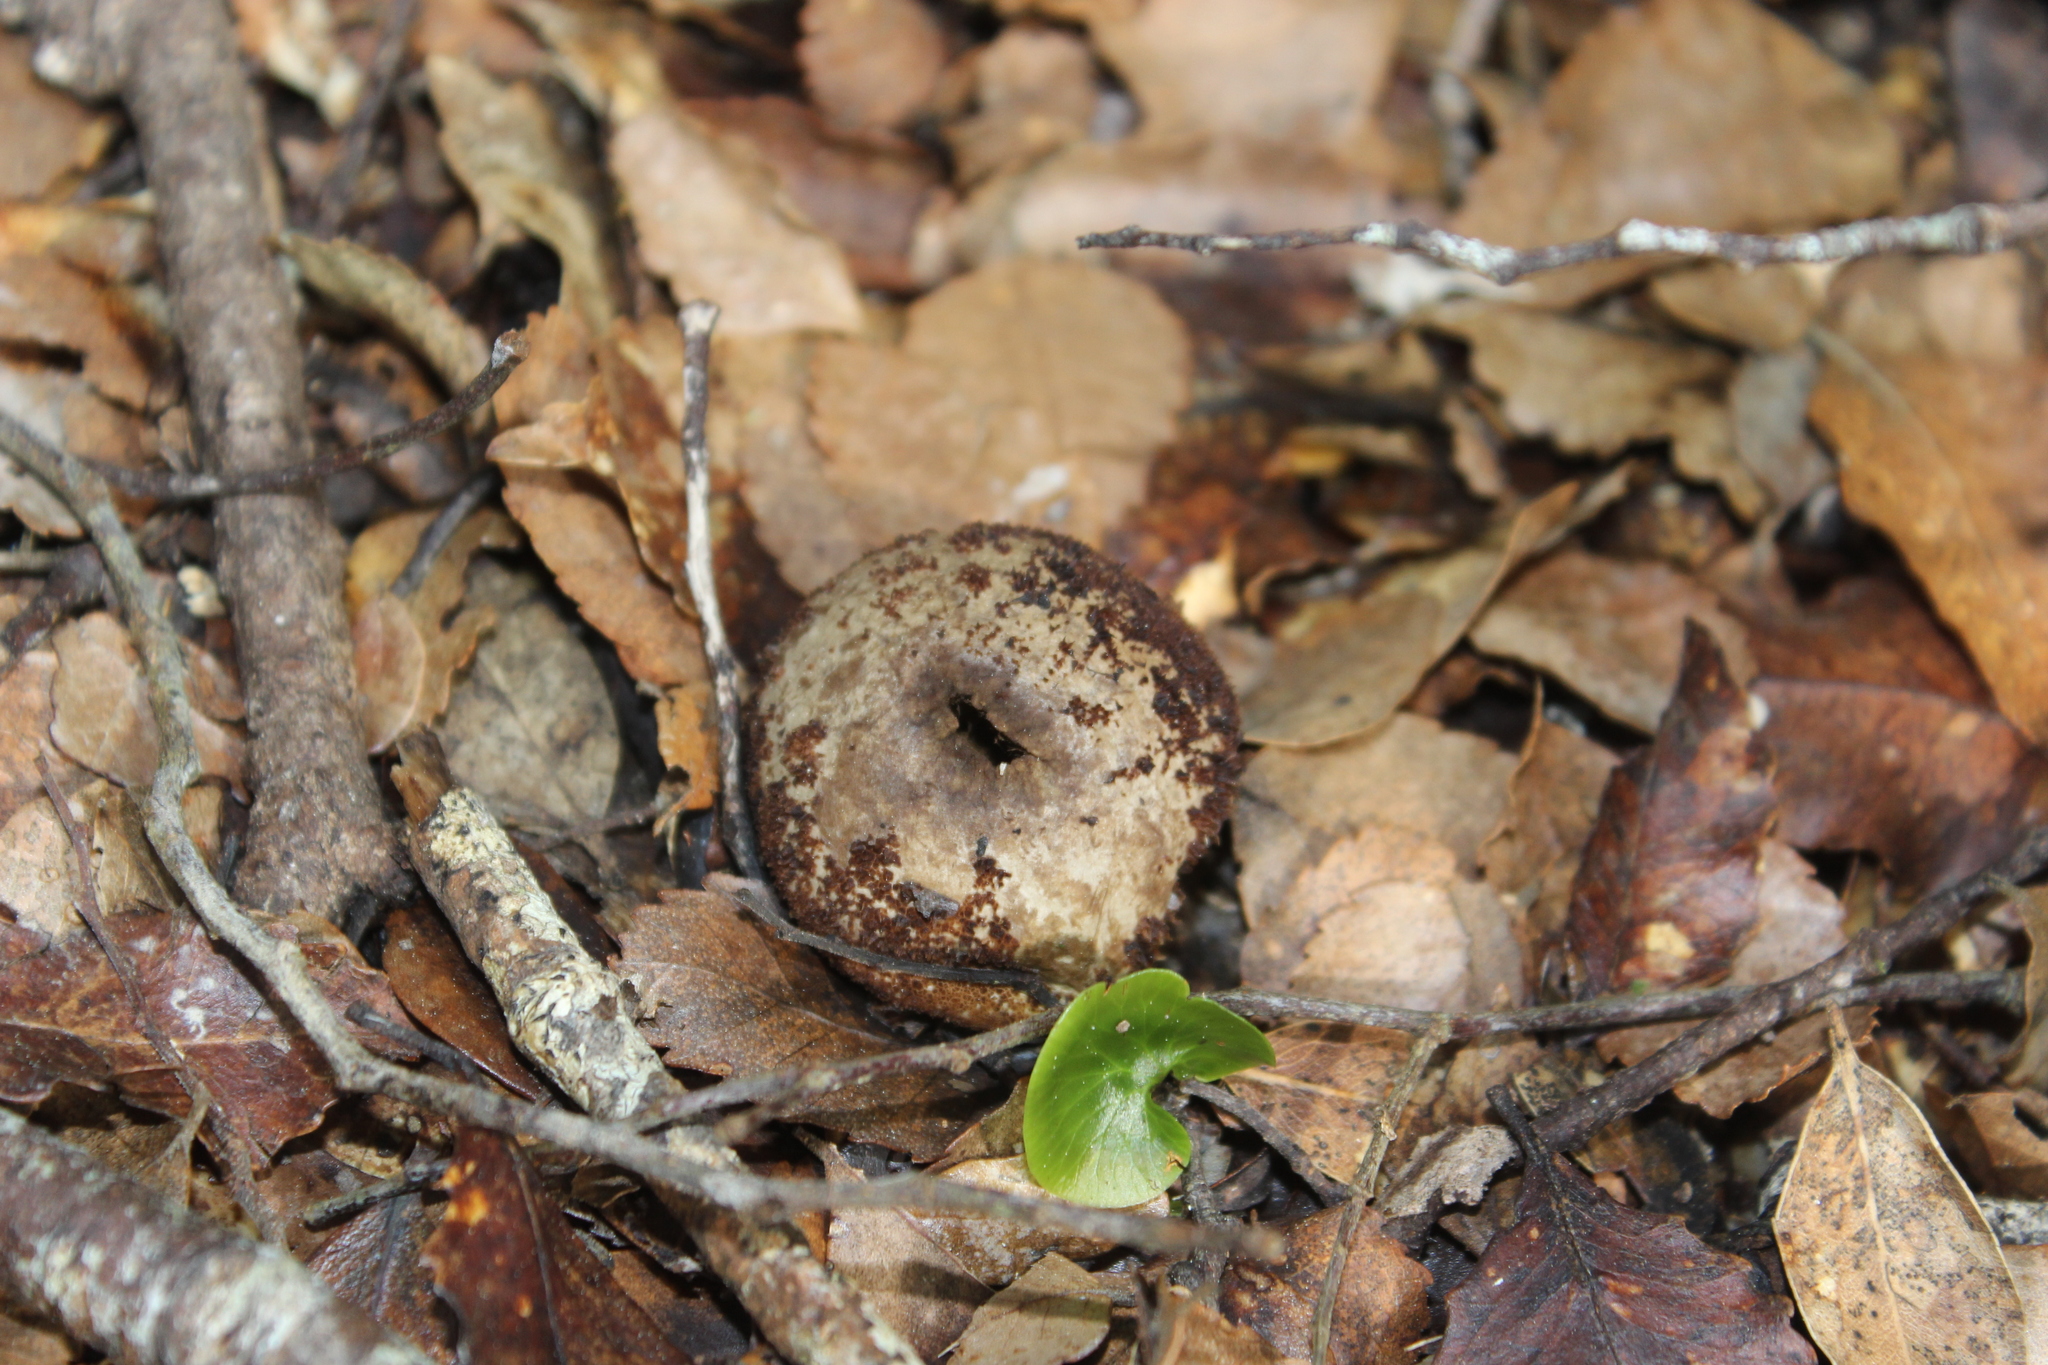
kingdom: Plantae
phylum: Tracheophyta
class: Polypodiopsida
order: Hymenophyllales
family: Hymenophyllaceae
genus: Hymenophyllum
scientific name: Hymenophyllum nephrophyllum
